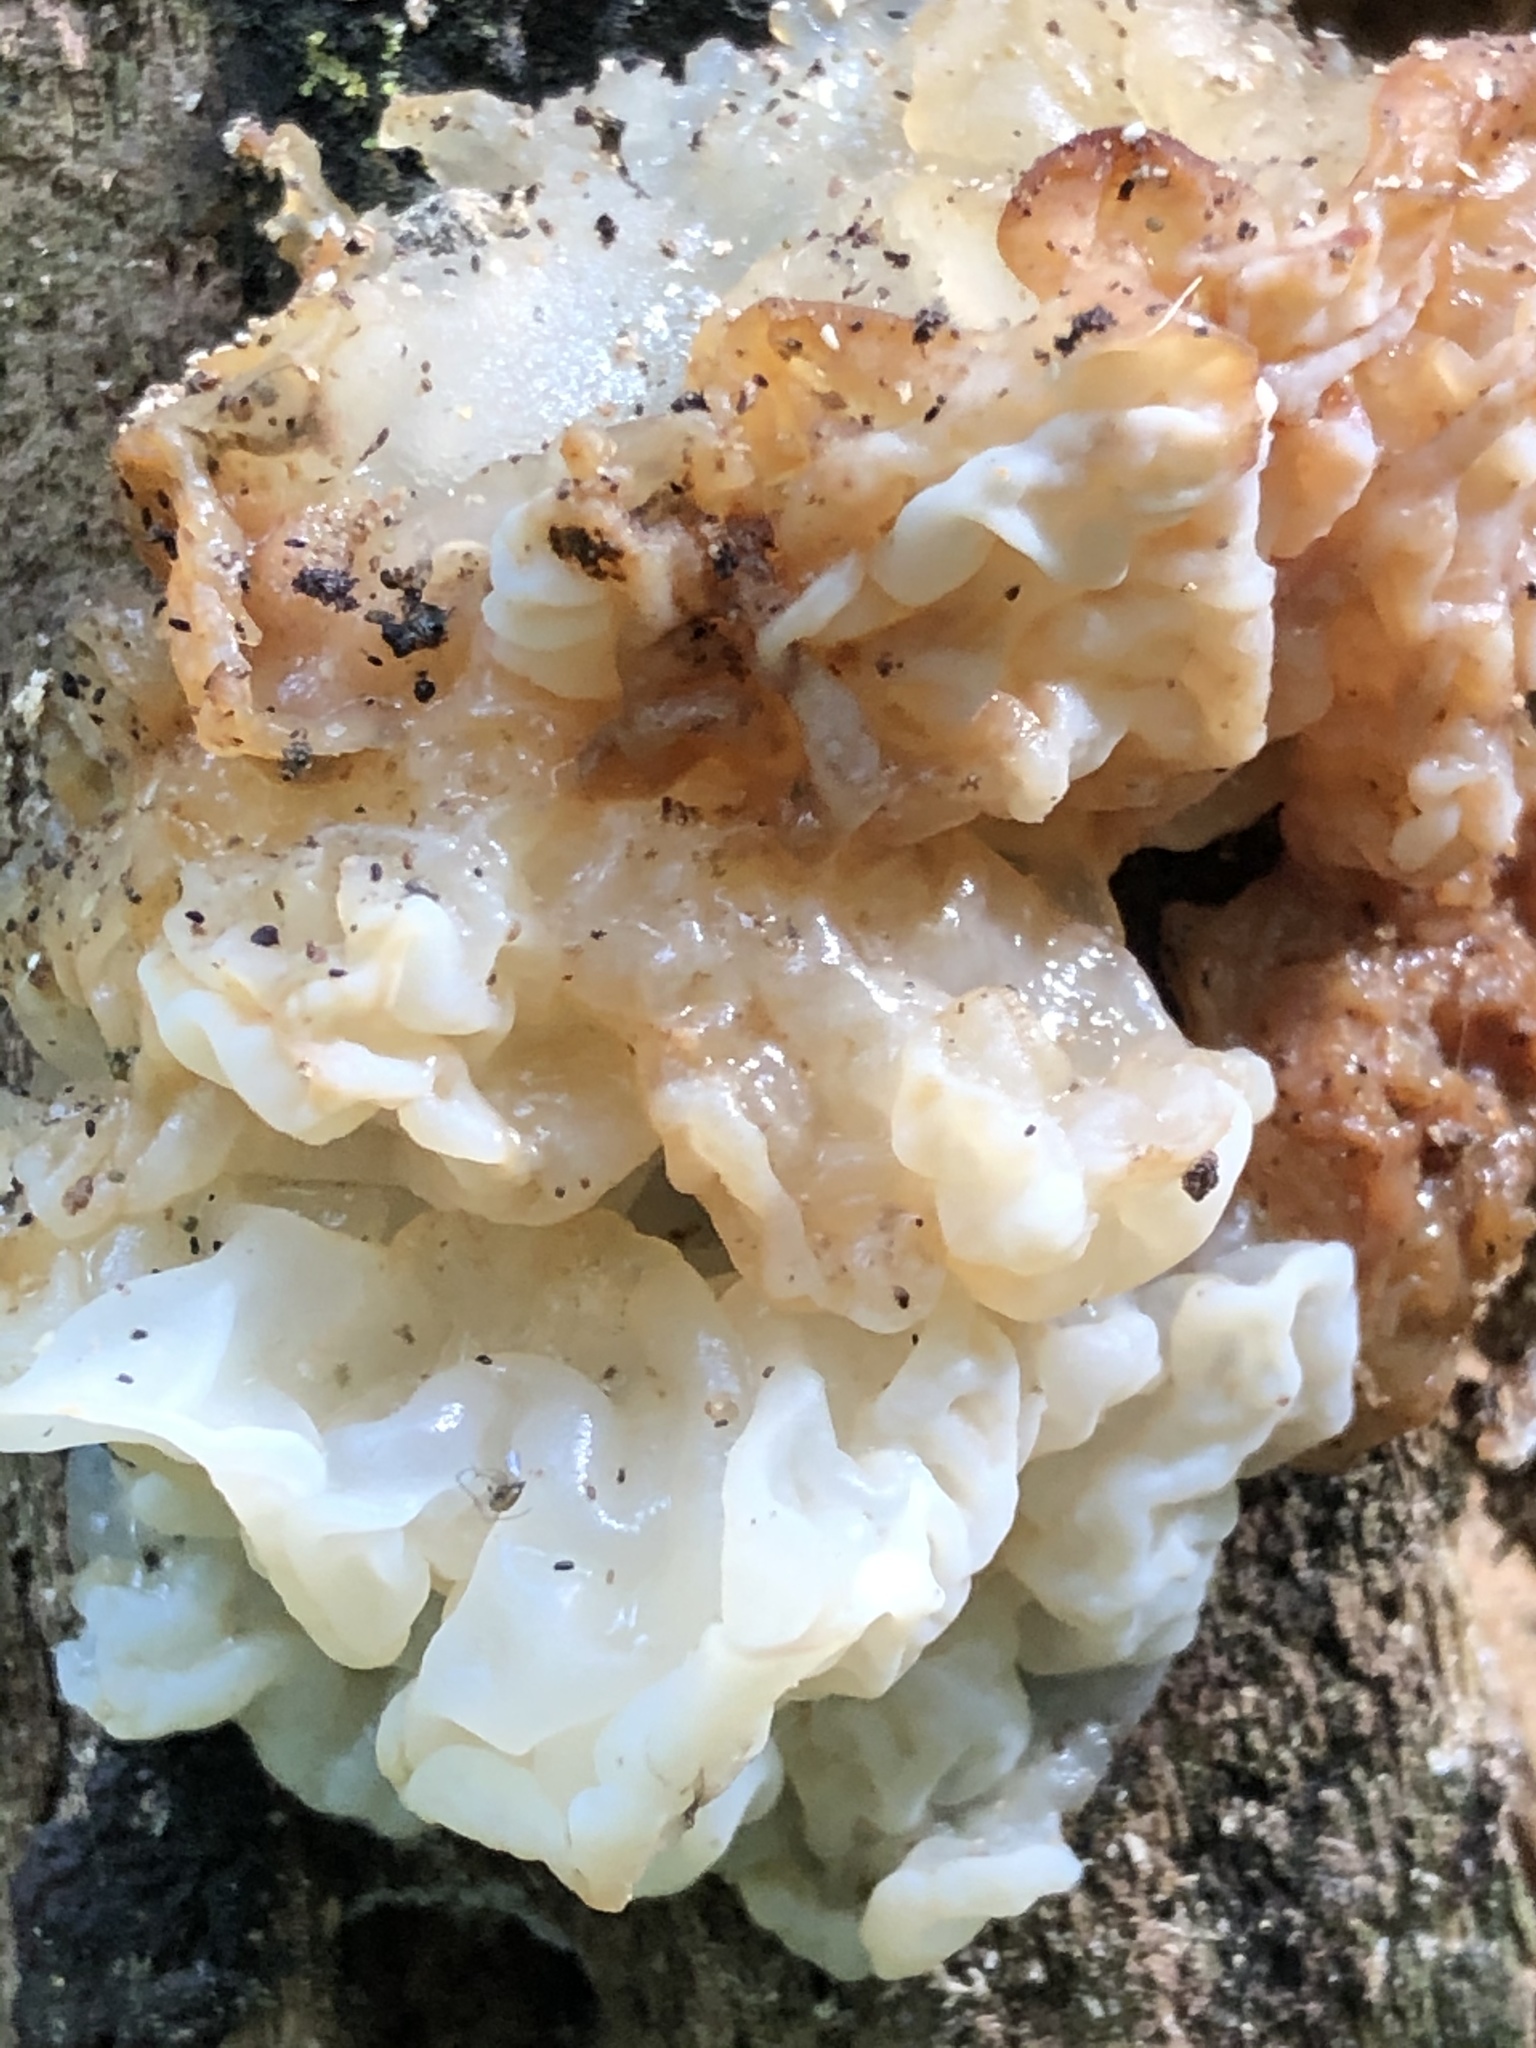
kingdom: Fungi
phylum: Basidiomycota
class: Agaricomycetes
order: Auriculariales
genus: Ductifera
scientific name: Ductifera pululahuana
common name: White jelly fungus
